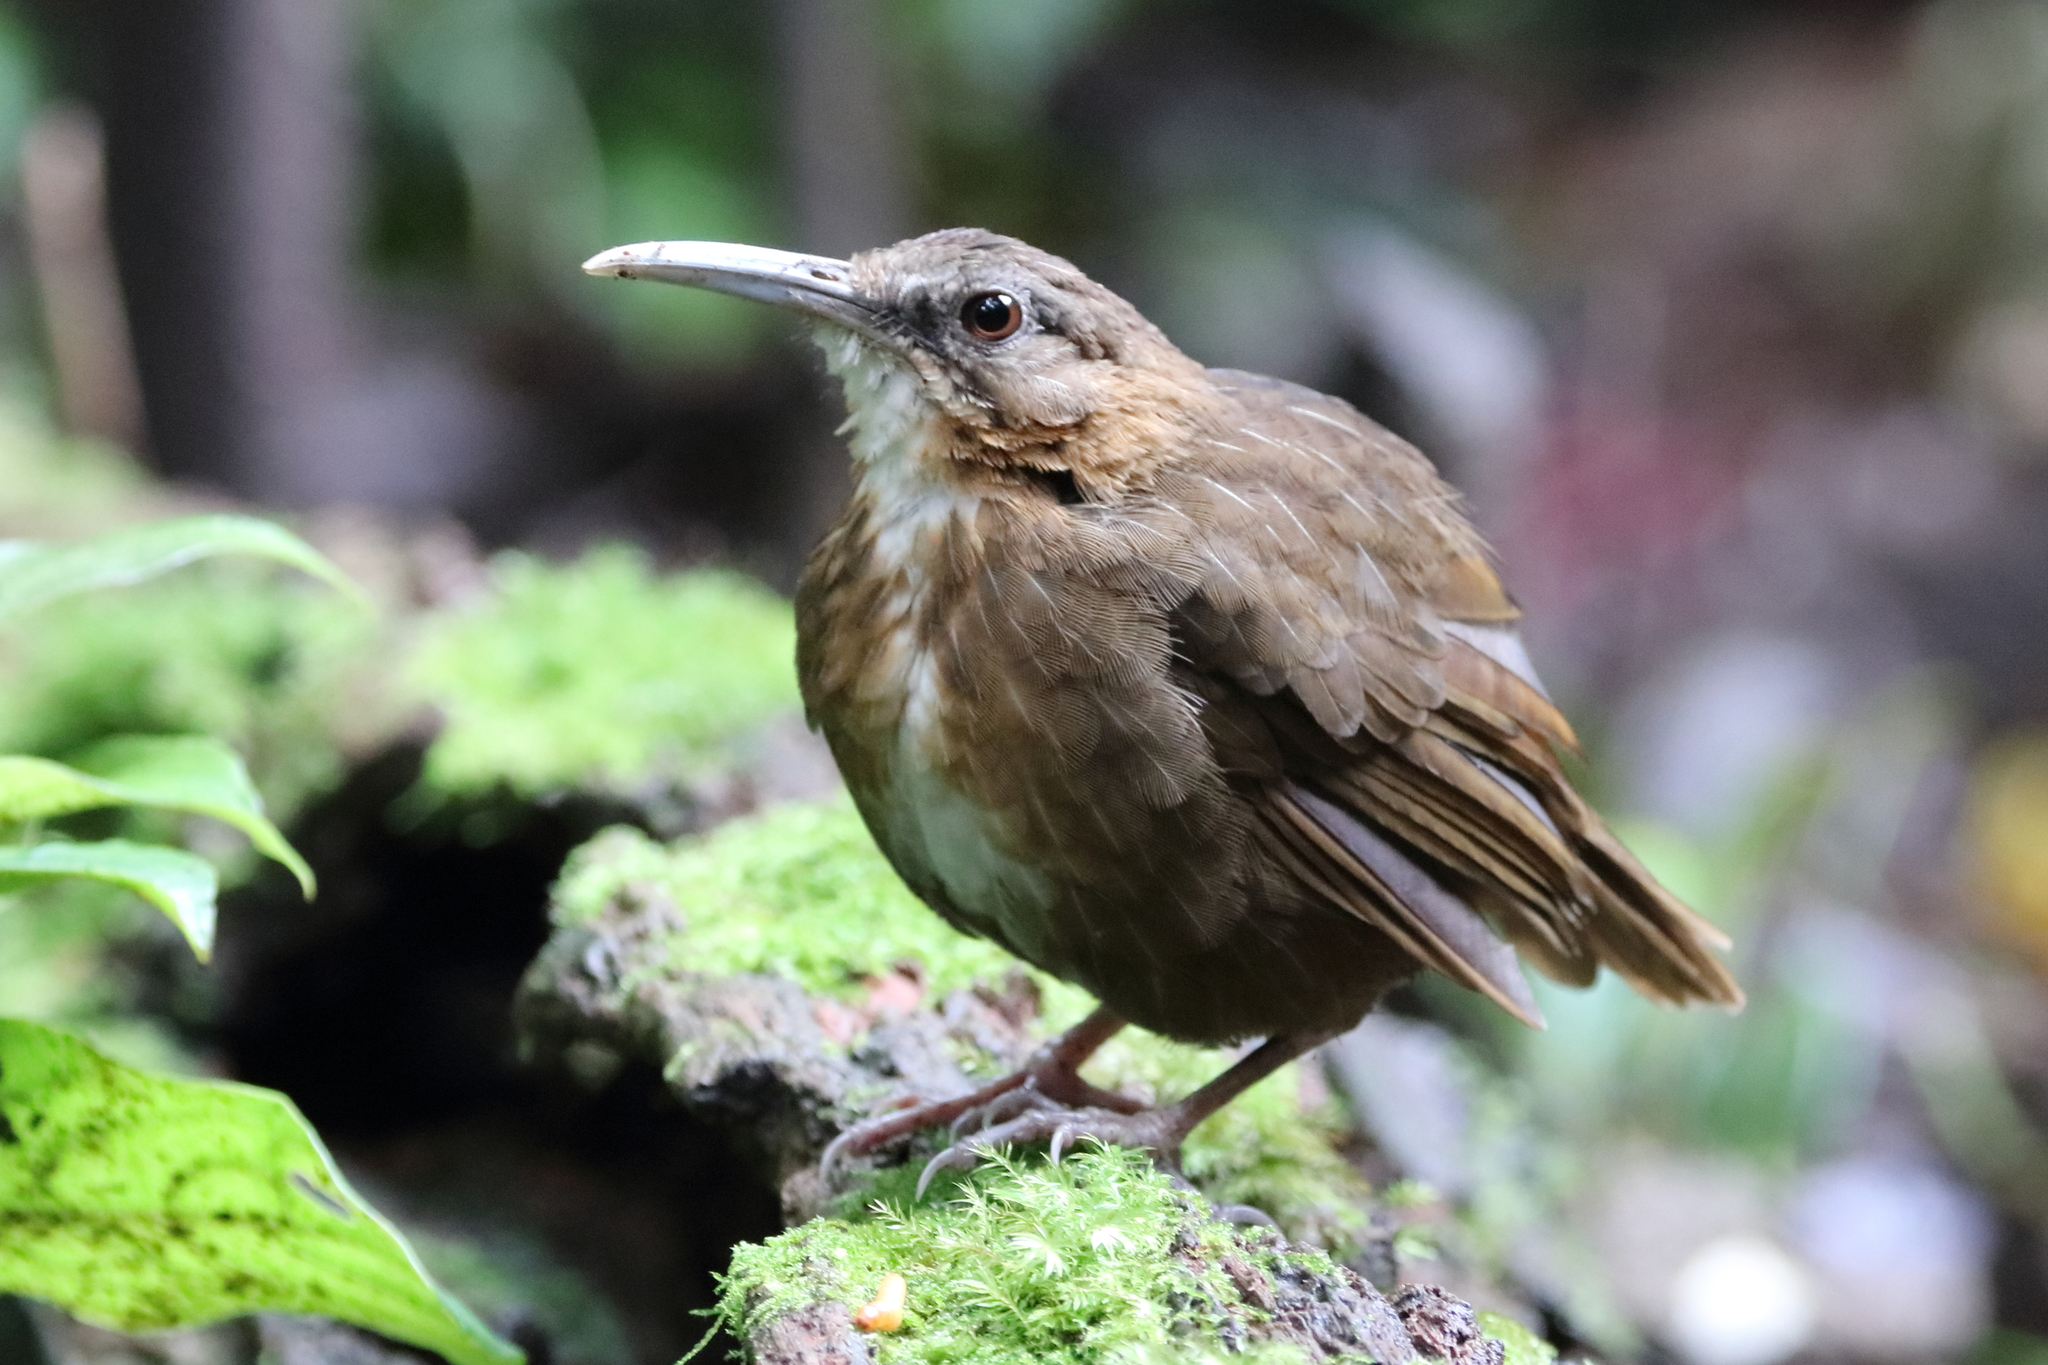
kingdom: Animalia
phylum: Chordata
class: Aves
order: Passeriformes
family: Pellorneidae
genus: Jabouilleia
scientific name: Jabouilleia danjoui
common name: Short-tailed scimitar babbler
